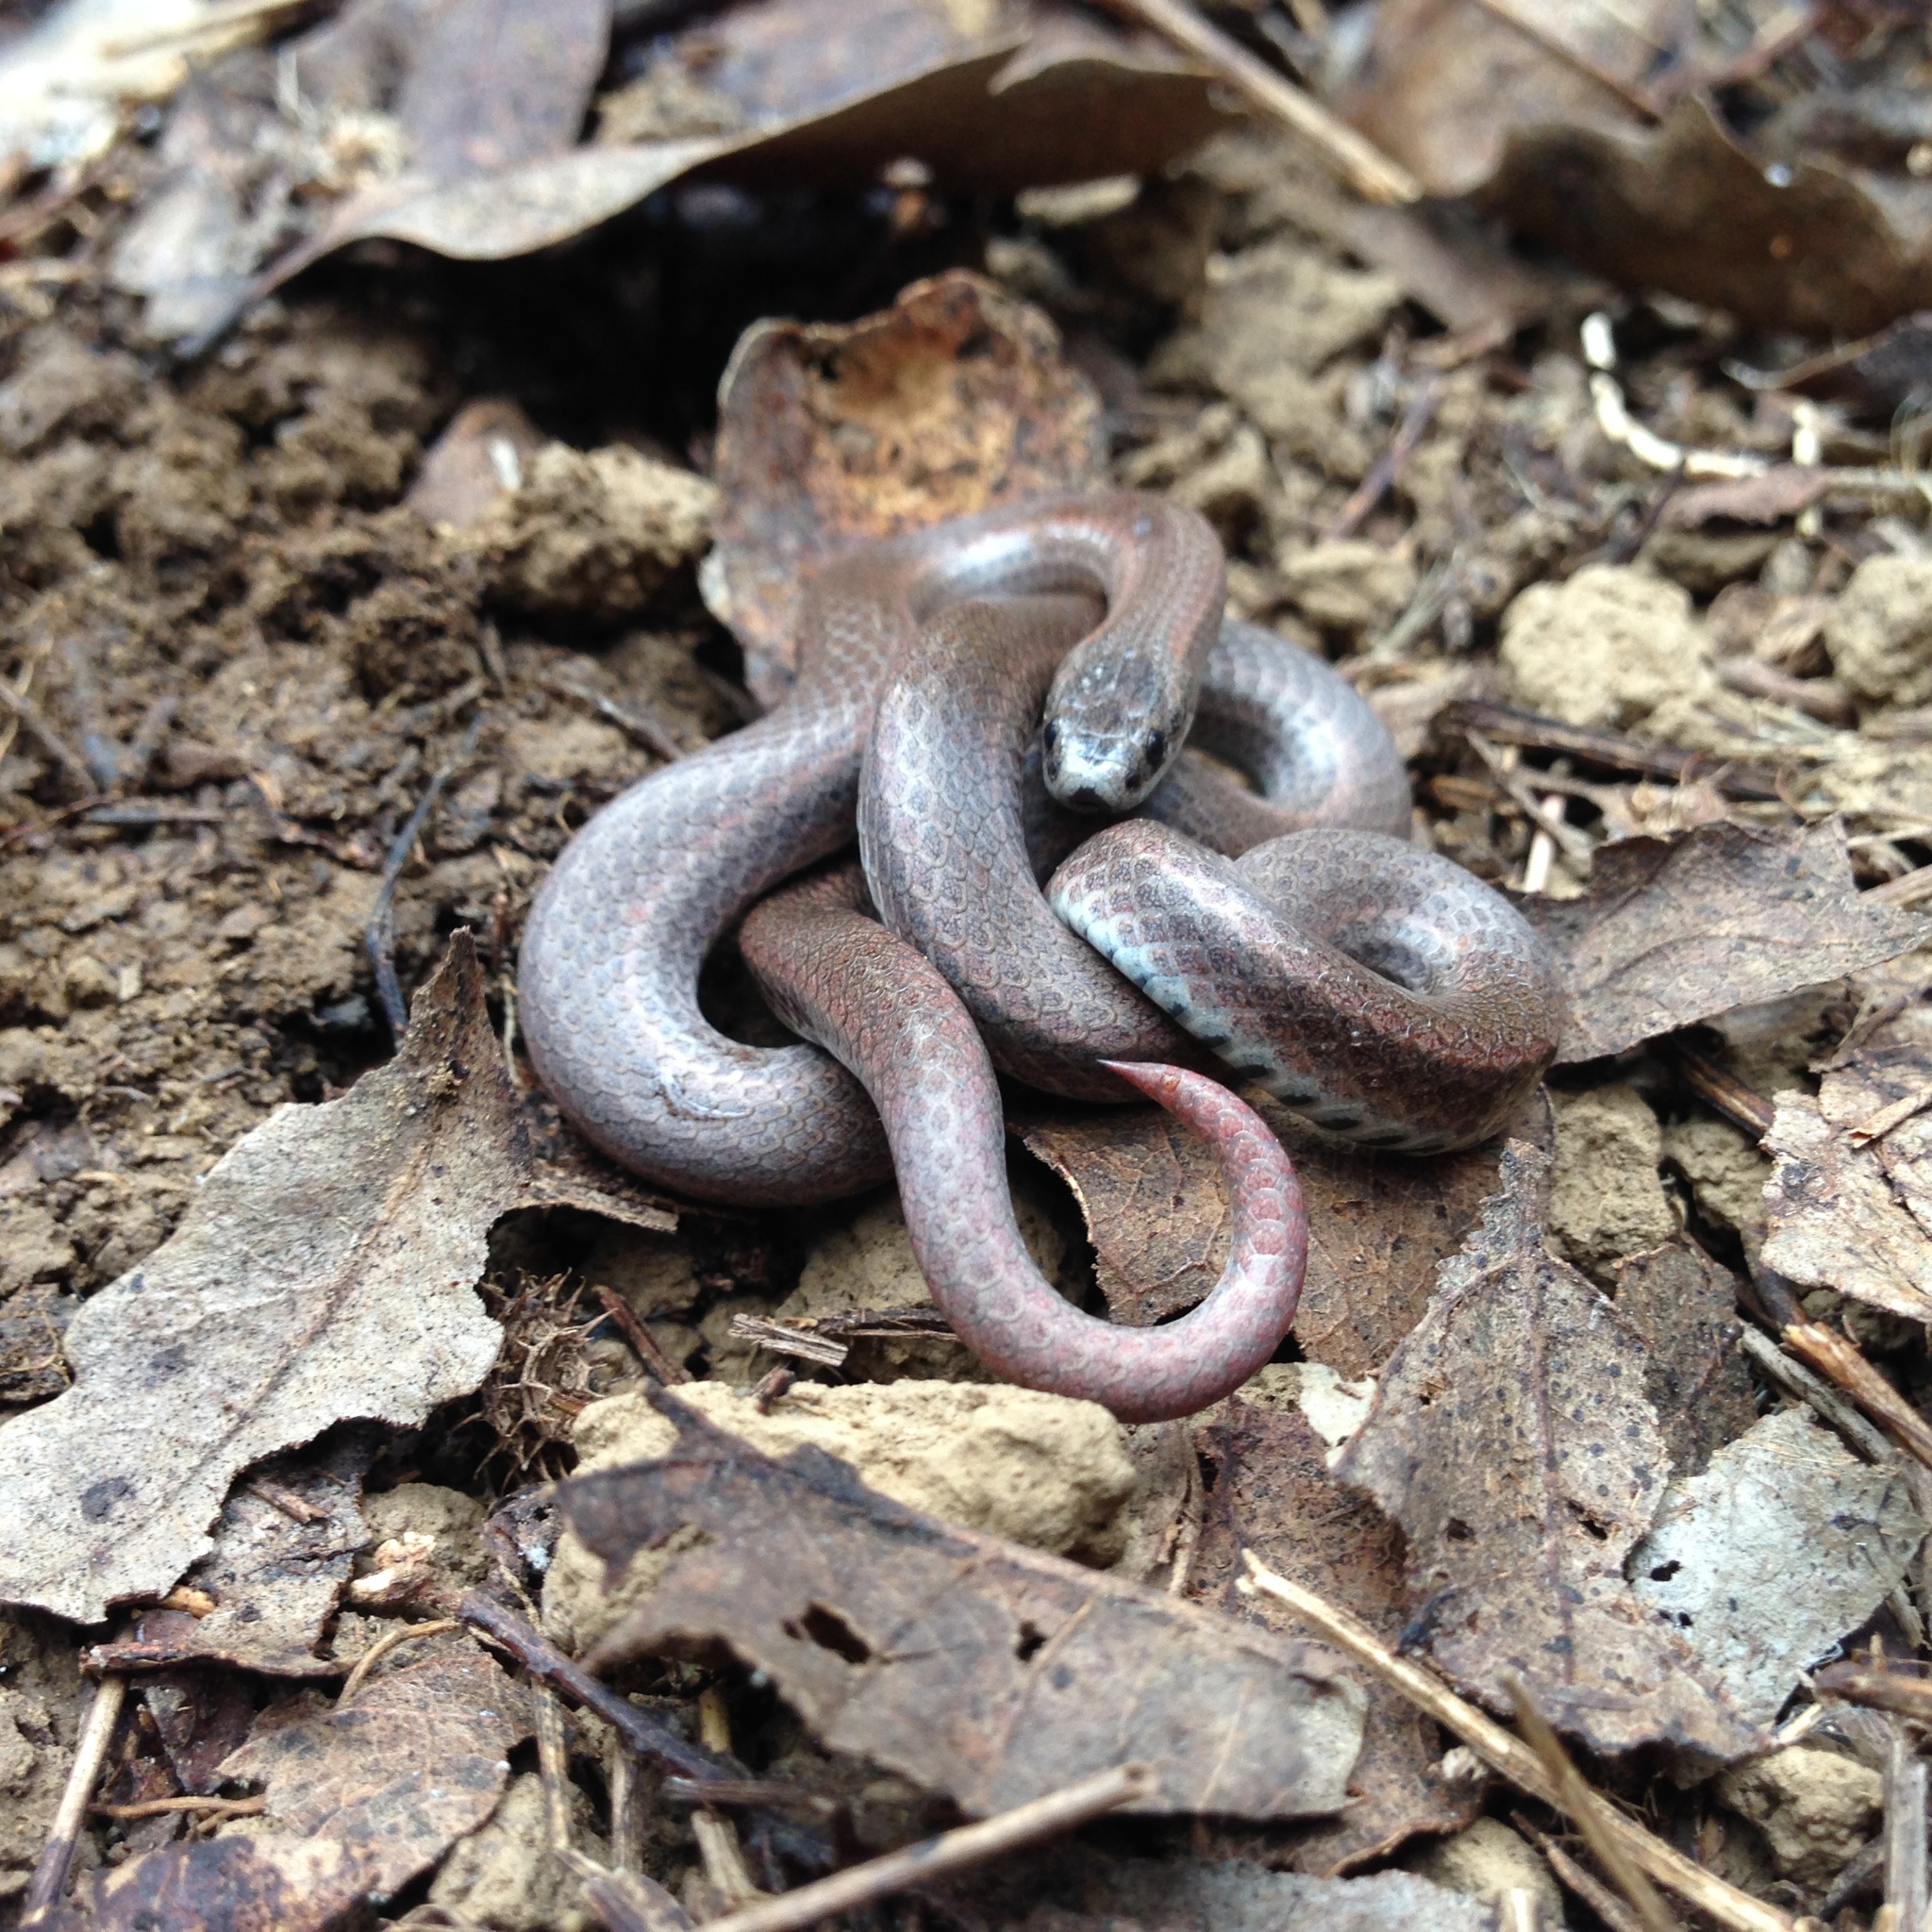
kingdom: Animalia
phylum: Chordata
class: Squamata
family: Colubridae
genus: Contia
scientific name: Contia tenuis
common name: Sharptail snake
